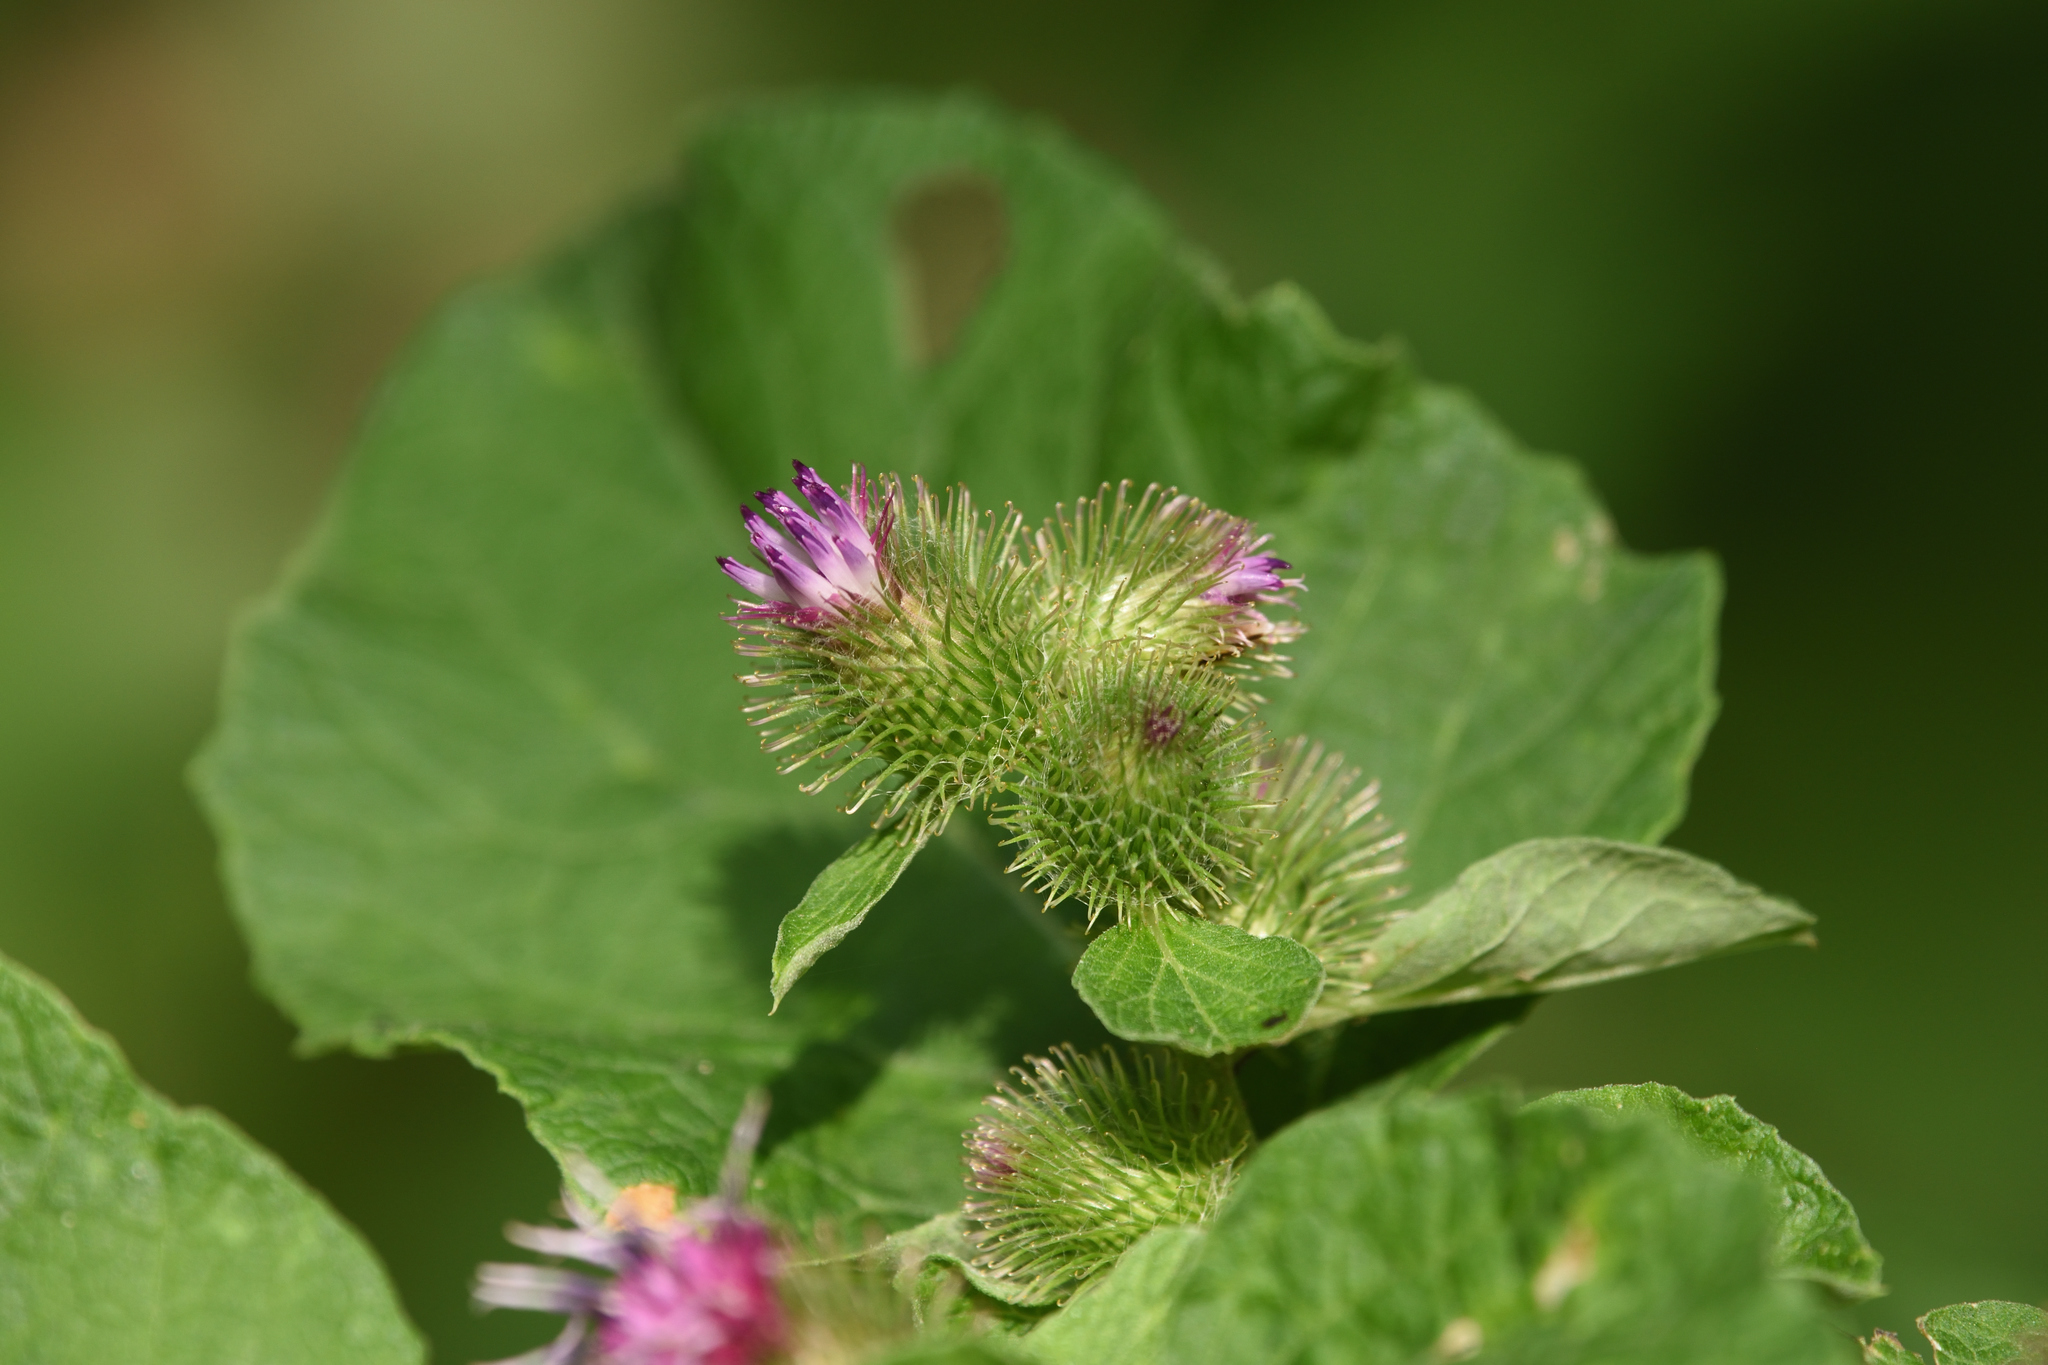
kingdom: Plantae
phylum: Tracheophyta
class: Magnoliopsida
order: Asterales
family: Asteraceae
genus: Arctium
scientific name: Arctium minus
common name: Lesser burdock
